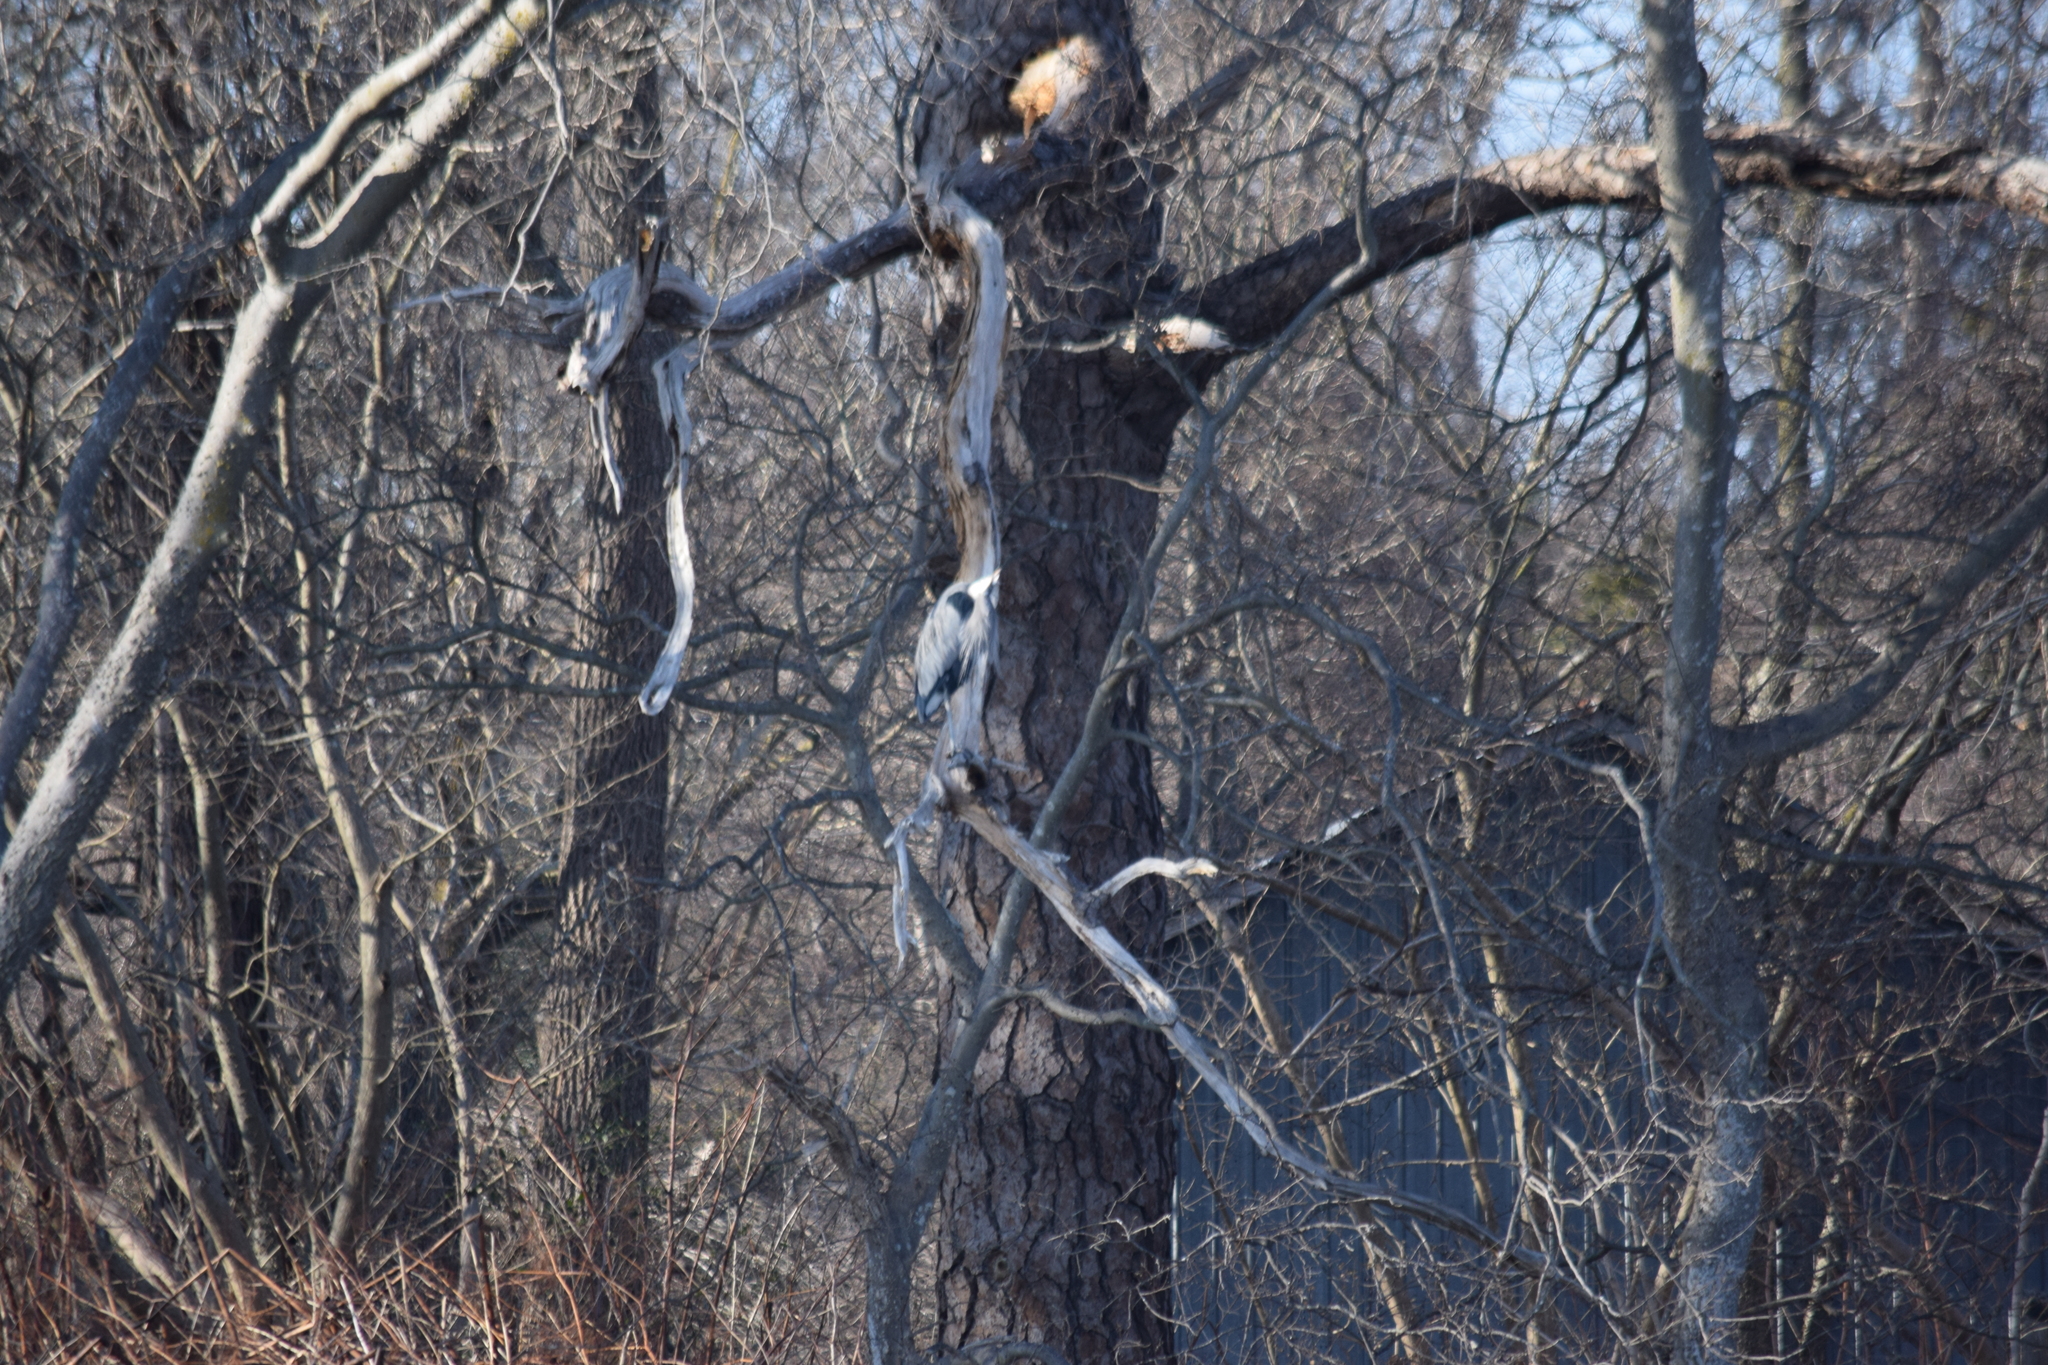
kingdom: Animalia
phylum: Chordata
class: Aves
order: Pelecaniformes
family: Ardeidae
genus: Ardea
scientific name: Ardea herodias
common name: Great blue heron
